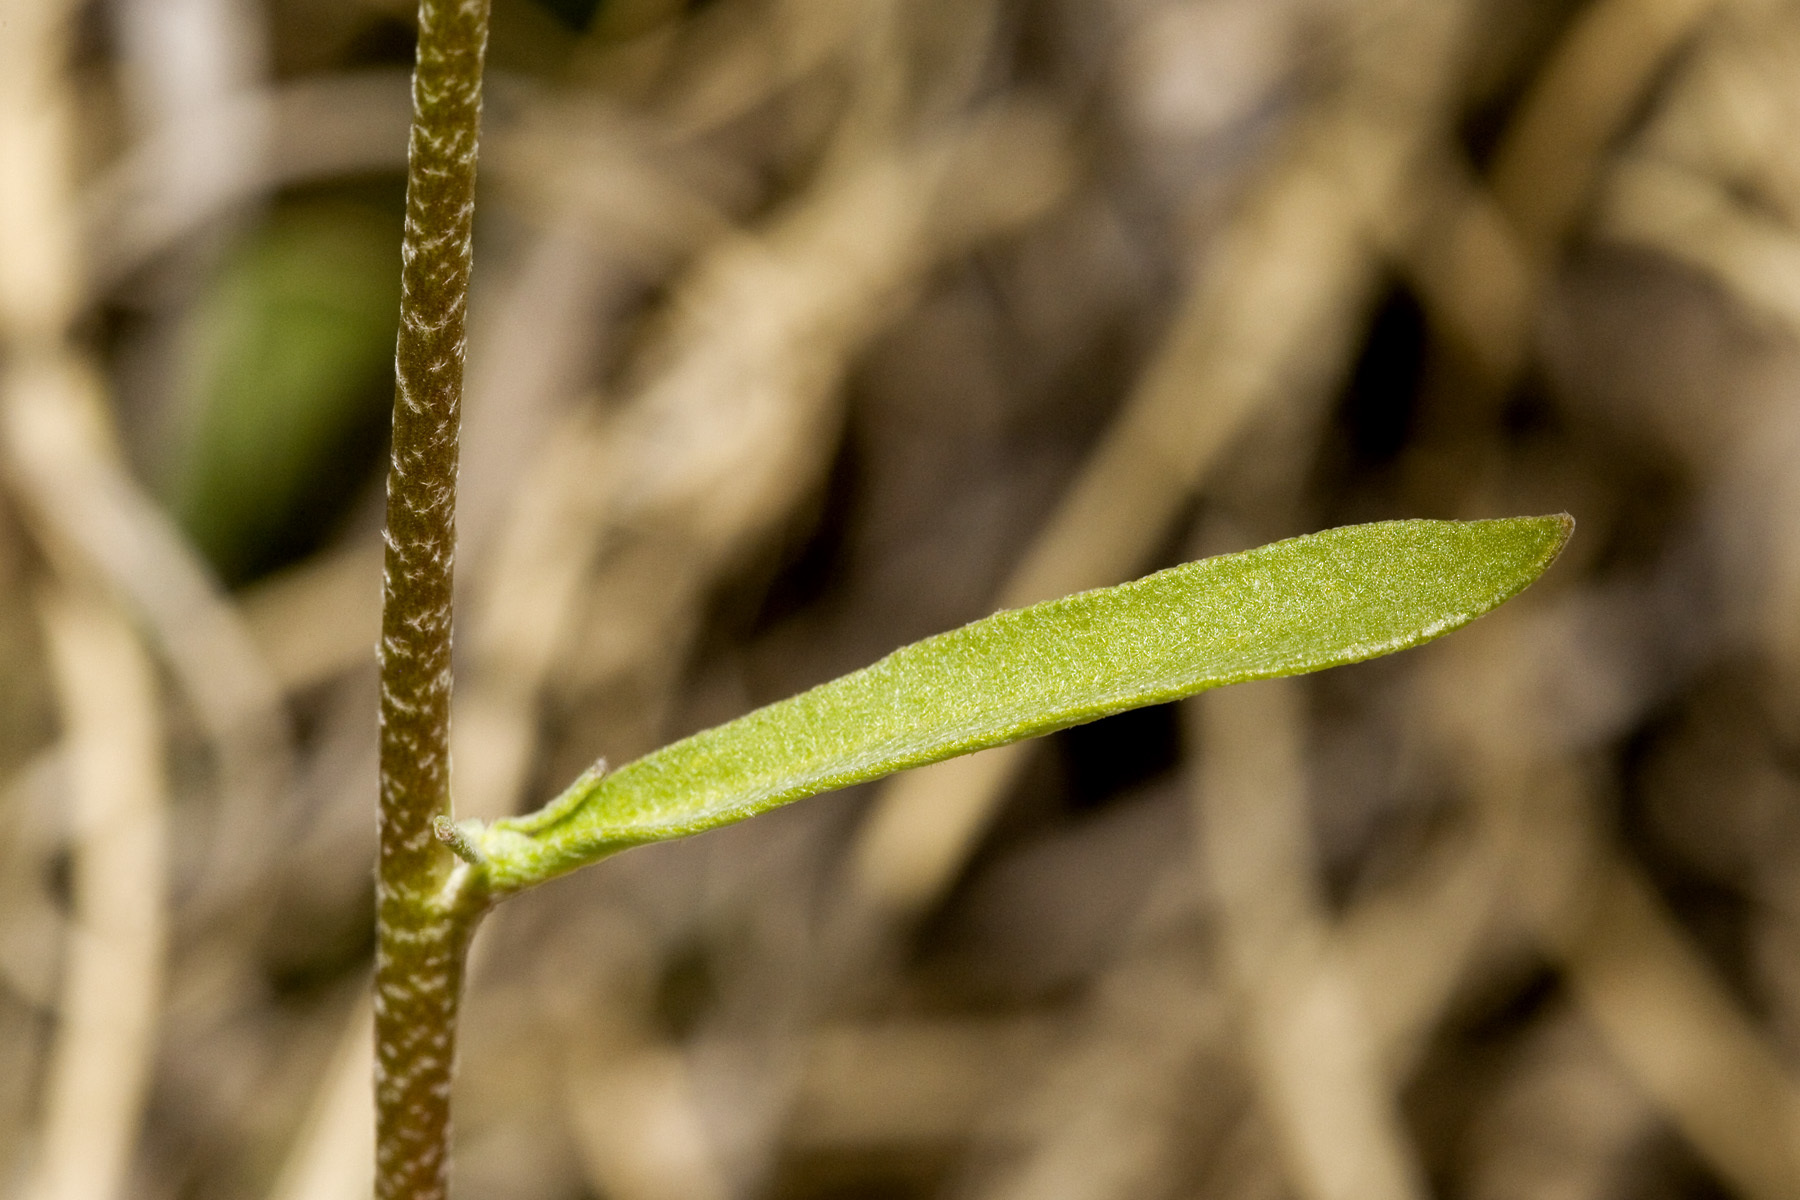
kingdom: Plantae
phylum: Tracheophyta
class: Magnoliopsida
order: Brassicales
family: Brassicaceae
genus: Physaria
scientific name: Physaria gordonii
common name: Gordon's bladderpod
